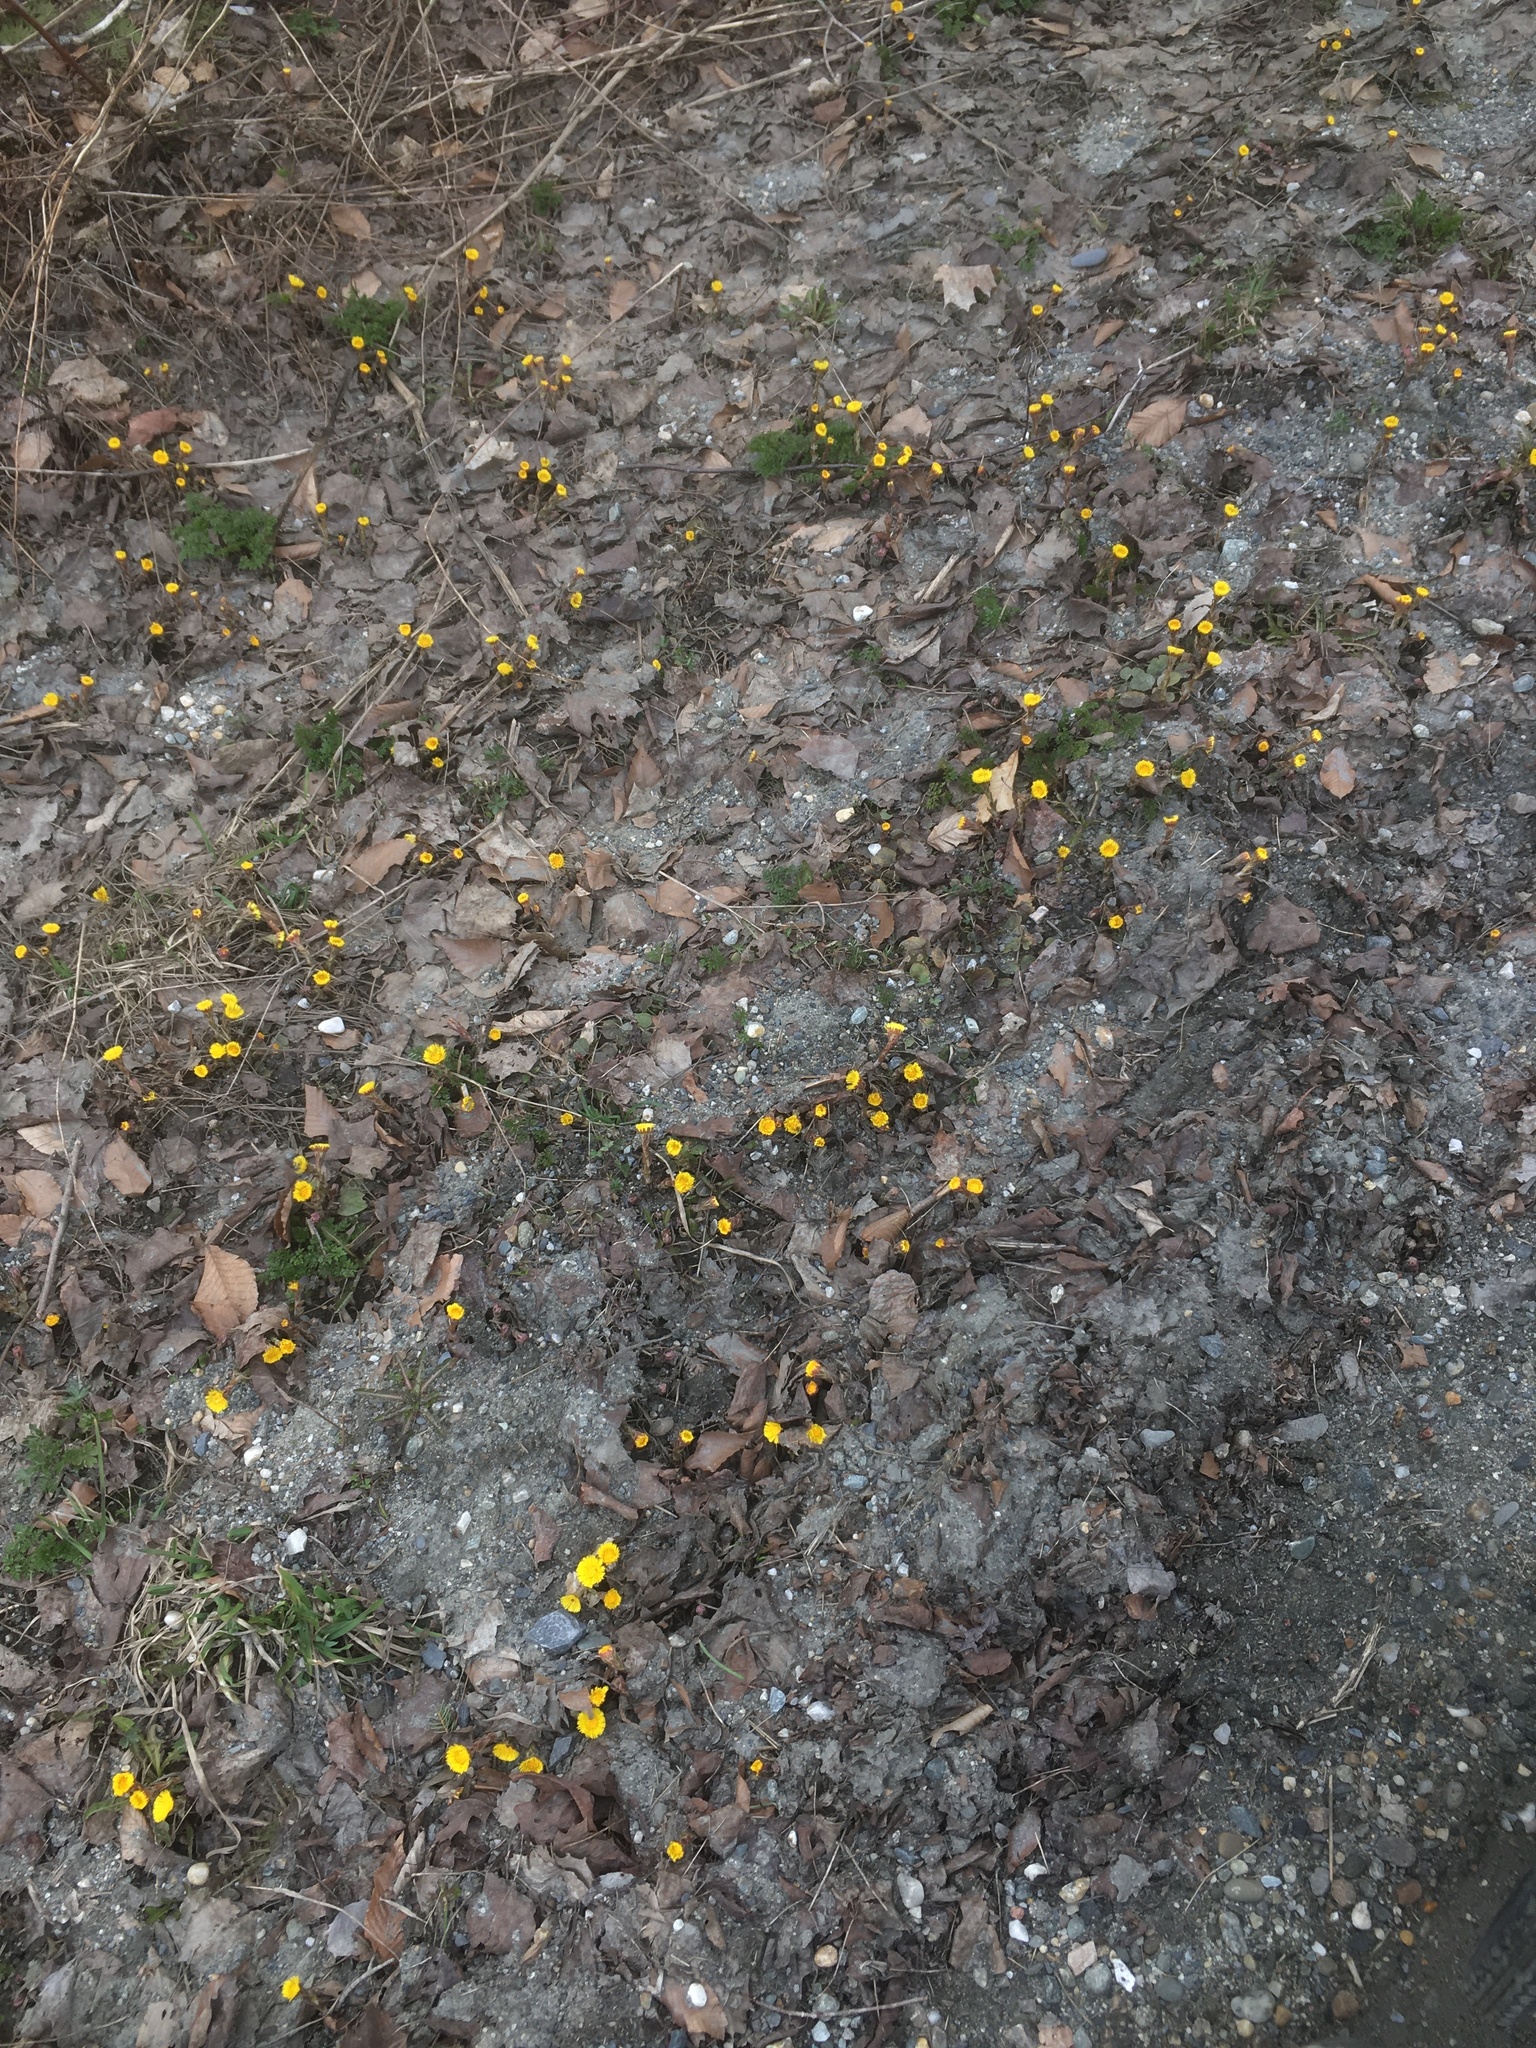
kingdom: Plantae
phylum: Tracheophyta
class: Magnoliopsida
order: Asterales
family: Asteraceae
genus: Tussilago
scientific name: Tussilago farfara
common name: Coltsfoot
